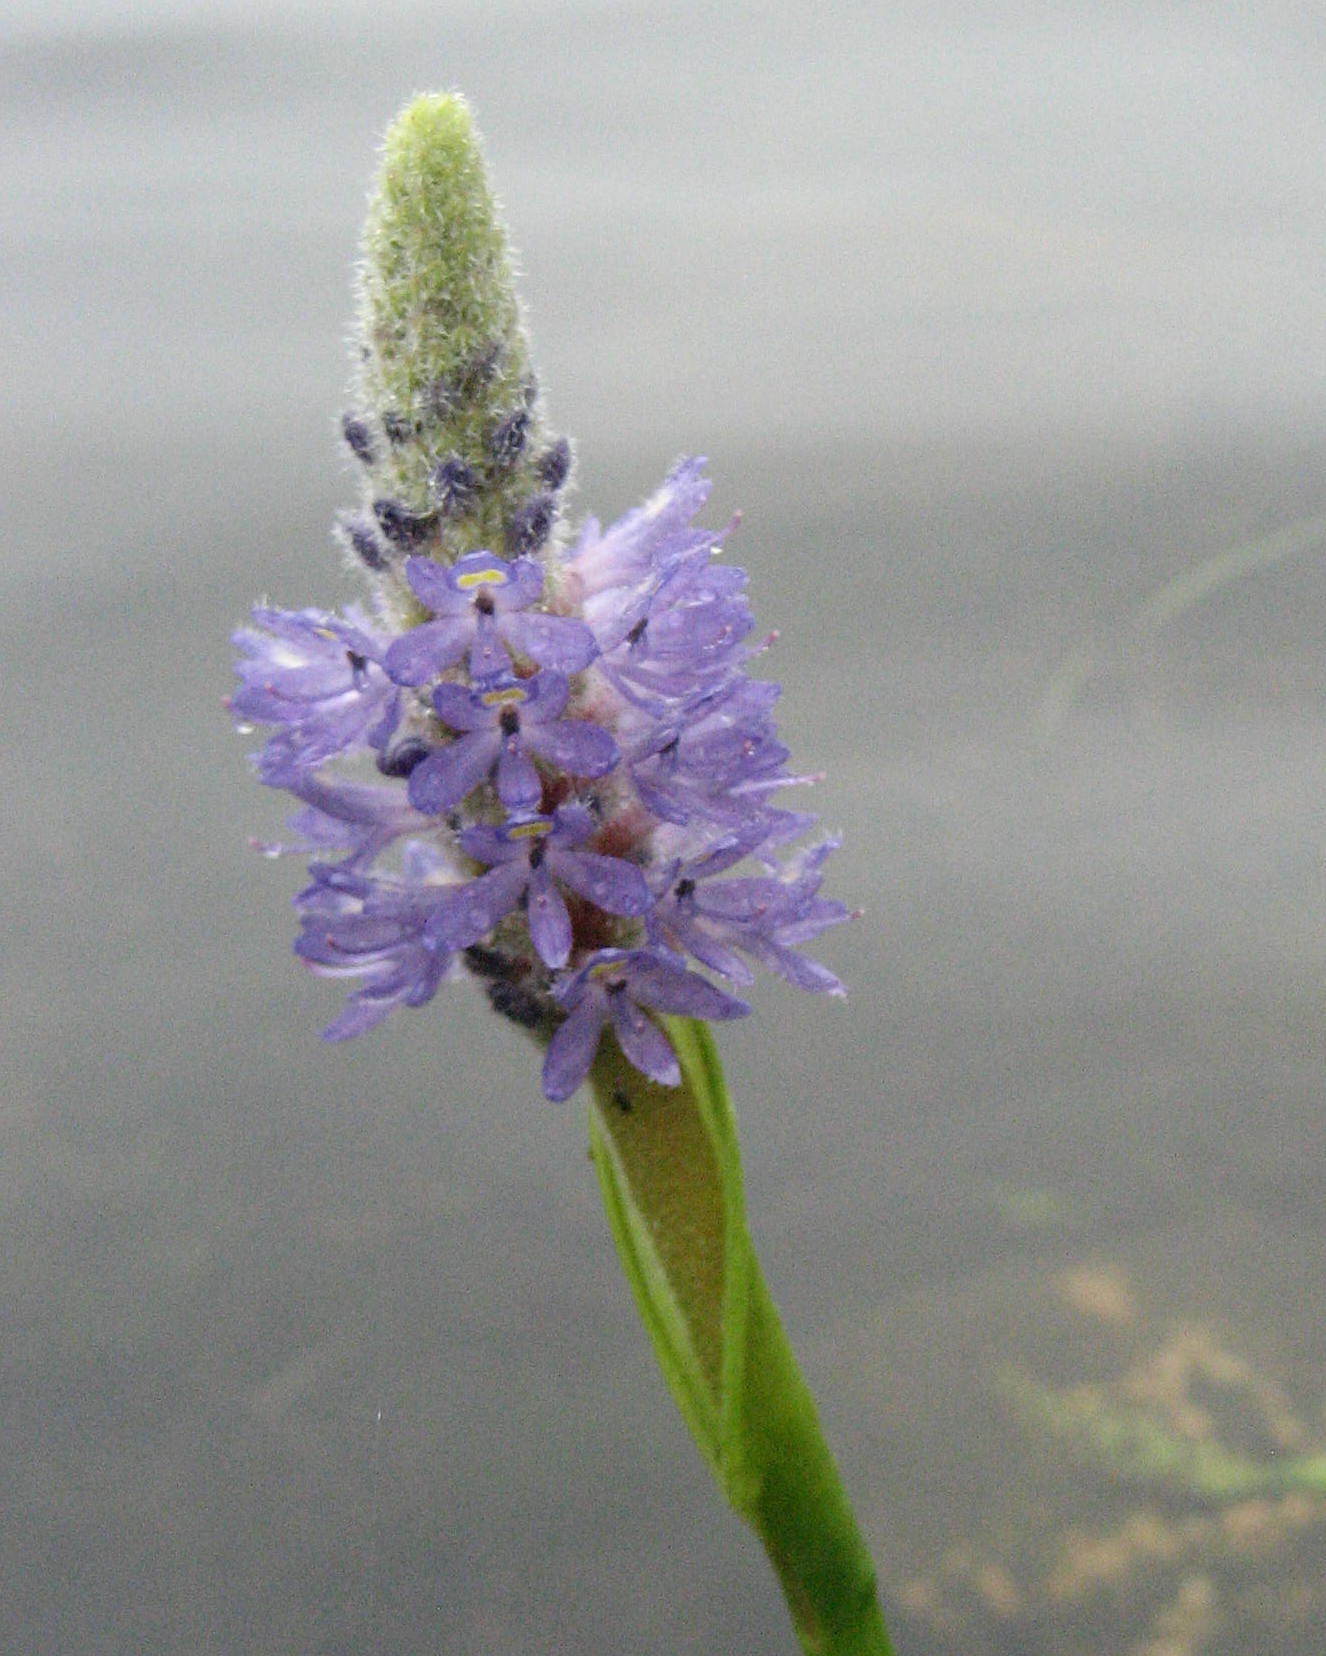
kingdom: Plantae
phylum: Tracheophyta
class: Liliopsida
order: Commelinales
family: Pontederiaceae
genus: Pontederia
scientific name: Pontederia cordata
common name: Pickerelweed
